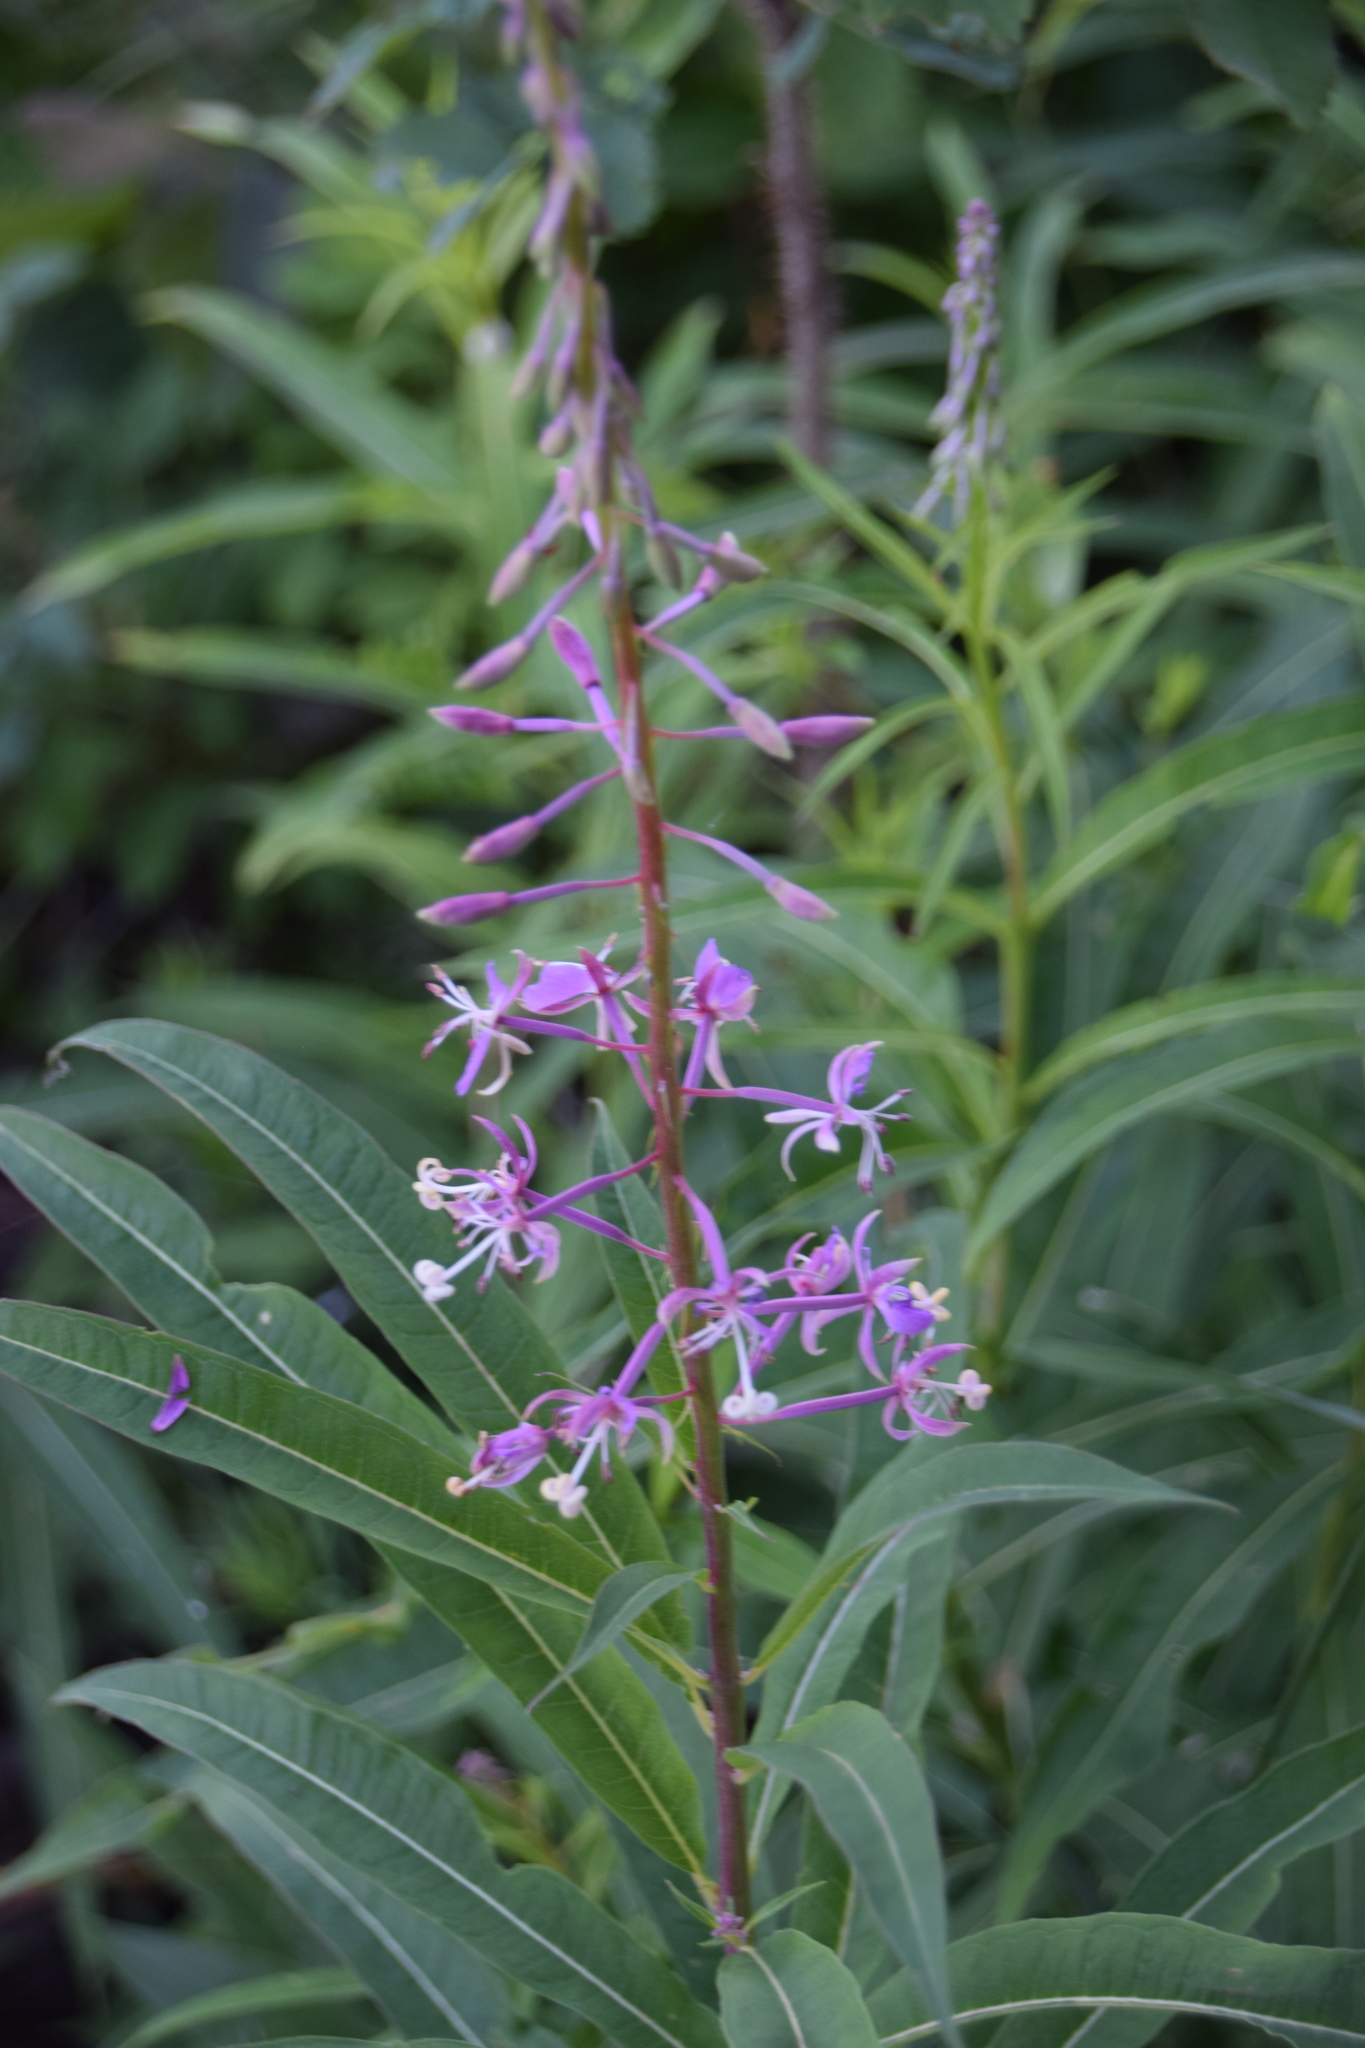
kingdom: Plantae
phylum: Tracheophyta
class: Magnoliopsida
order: Myrtales
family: Onagraceae
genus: Chamaenerion
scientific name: Chamaenerion angustifolium
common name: Fireweed
